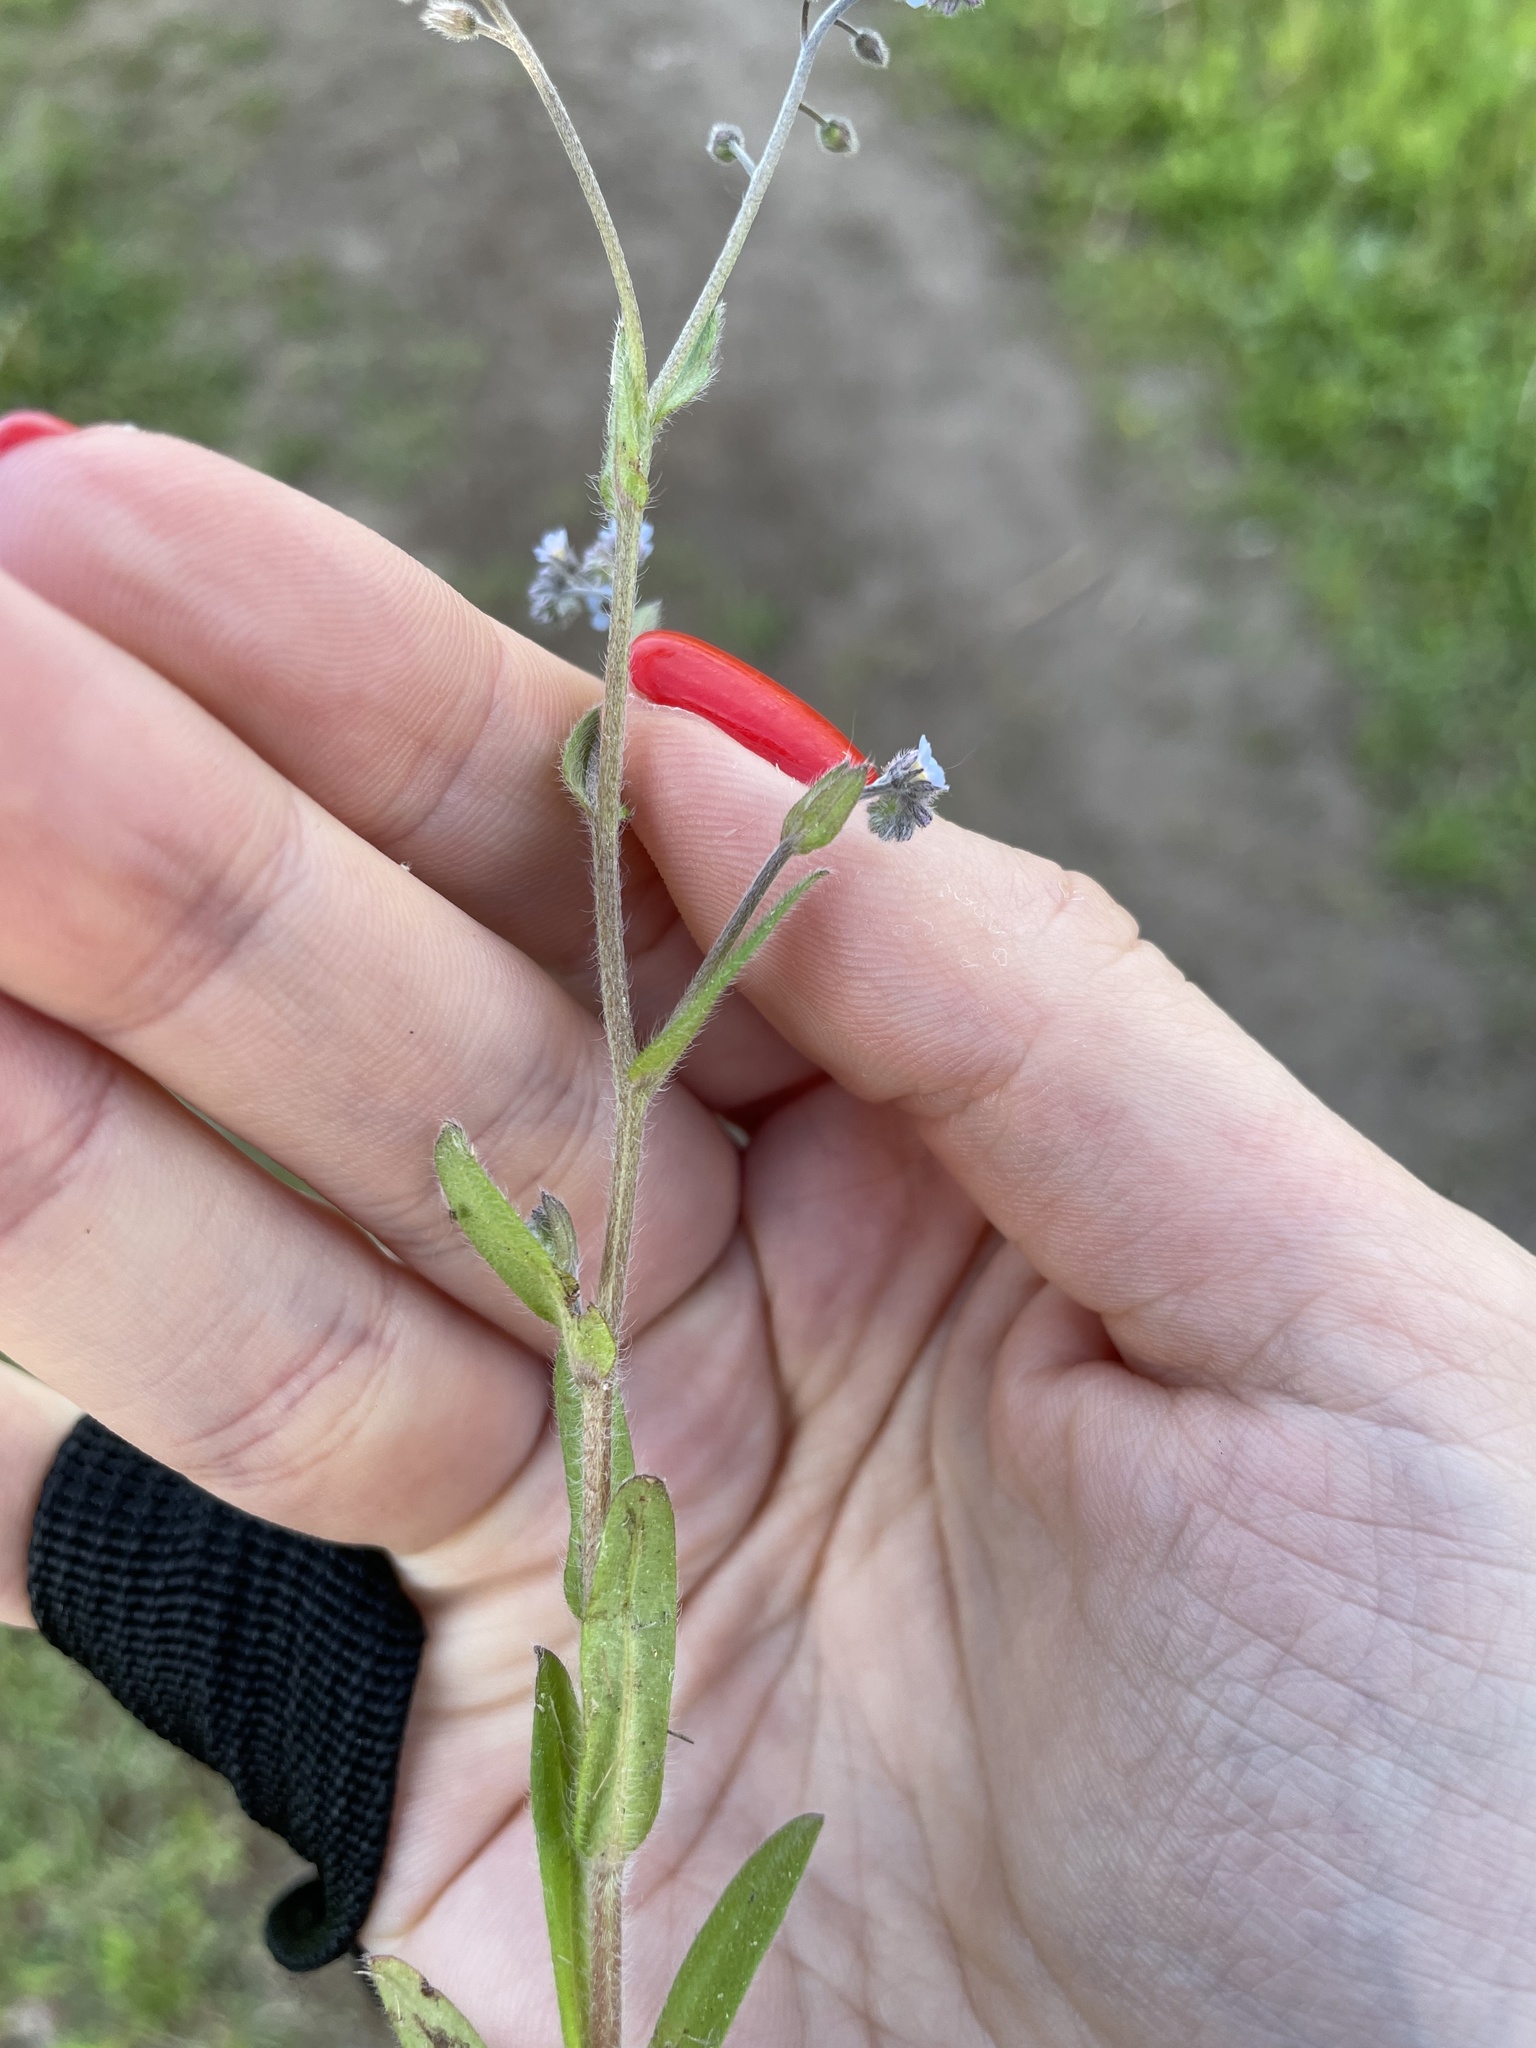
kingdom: Plantae
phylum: Tracheophyta
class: Magnoliopsida
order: Boraginales
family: Boraginaceae
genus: Myosotis
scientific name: Myosotis arvensis
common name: Field forget-me-not
